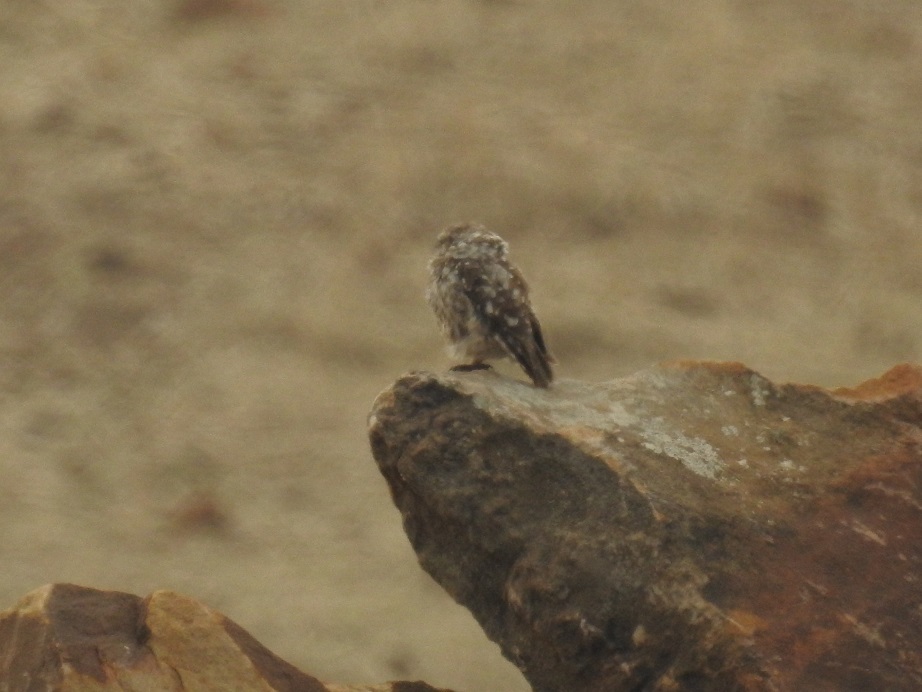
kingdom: Animalia
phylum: Chordata
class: Aves
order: Strigiformes
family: Strigidae
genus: Athene
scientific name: Athene noctua
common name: Little owl
